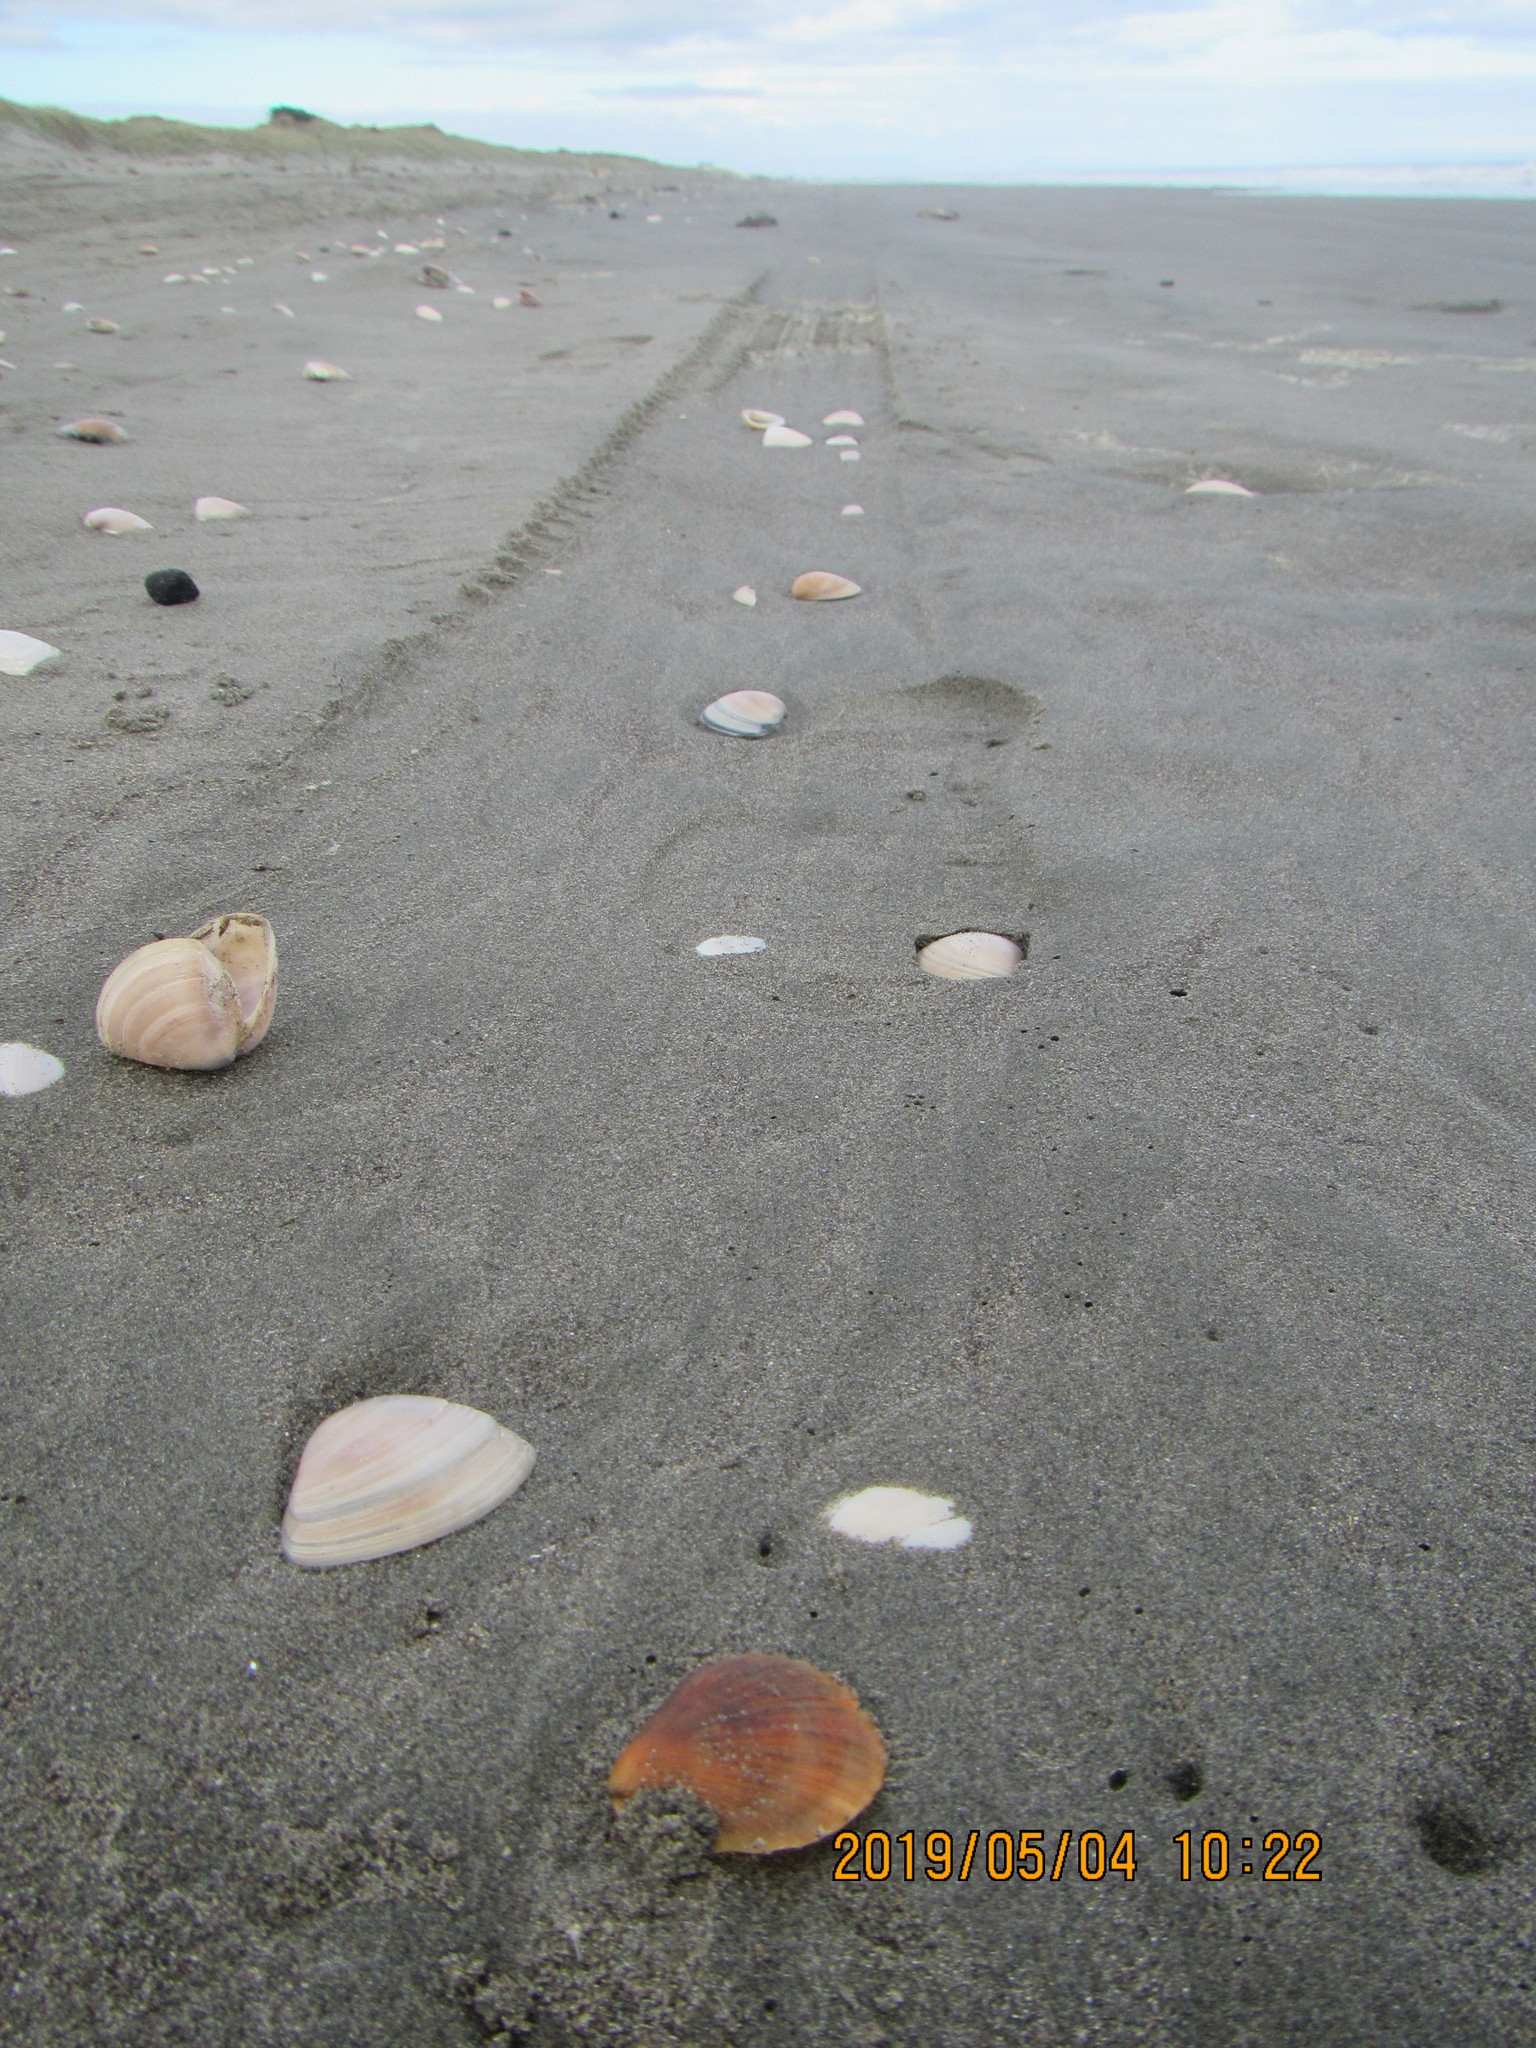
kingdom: Animalia
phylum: Mollusca
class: Bivalvia
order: Pectinida
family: Pectinidae
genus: Talochlamys
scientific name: Talochlamys zelandiae
